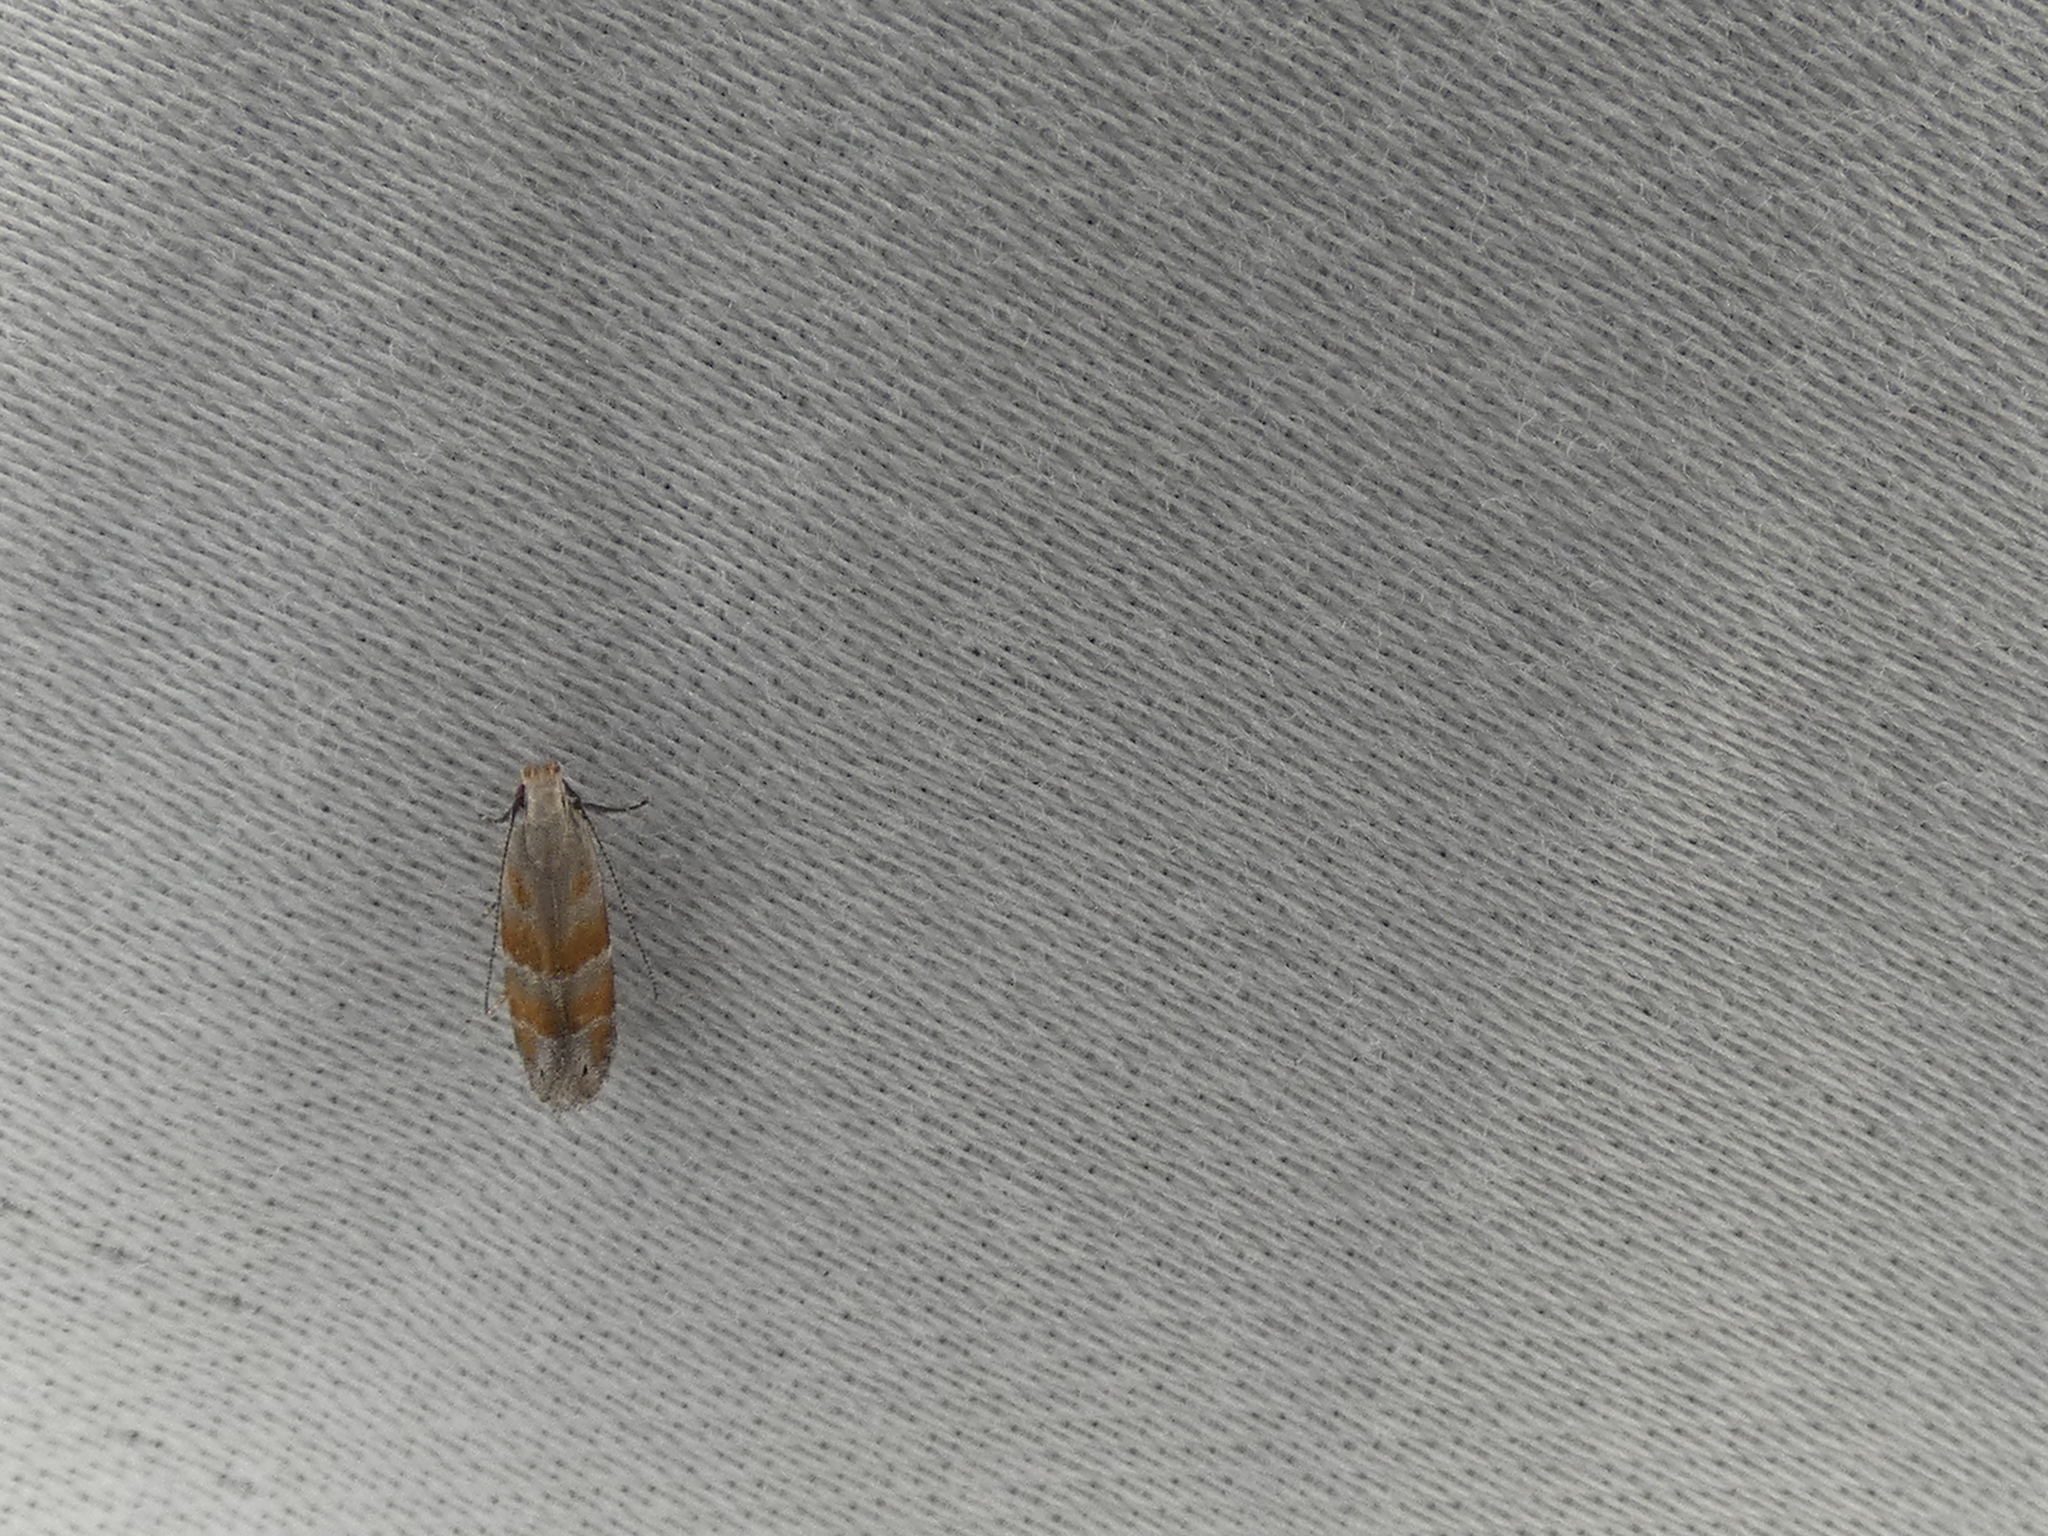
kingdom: Animalia
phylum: Arthropoda
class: Insecta
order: Lepidoptera
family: Gelechiidae
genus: Battaristis
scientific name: Battaristis vittella
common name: Orange stripe-backed moth
